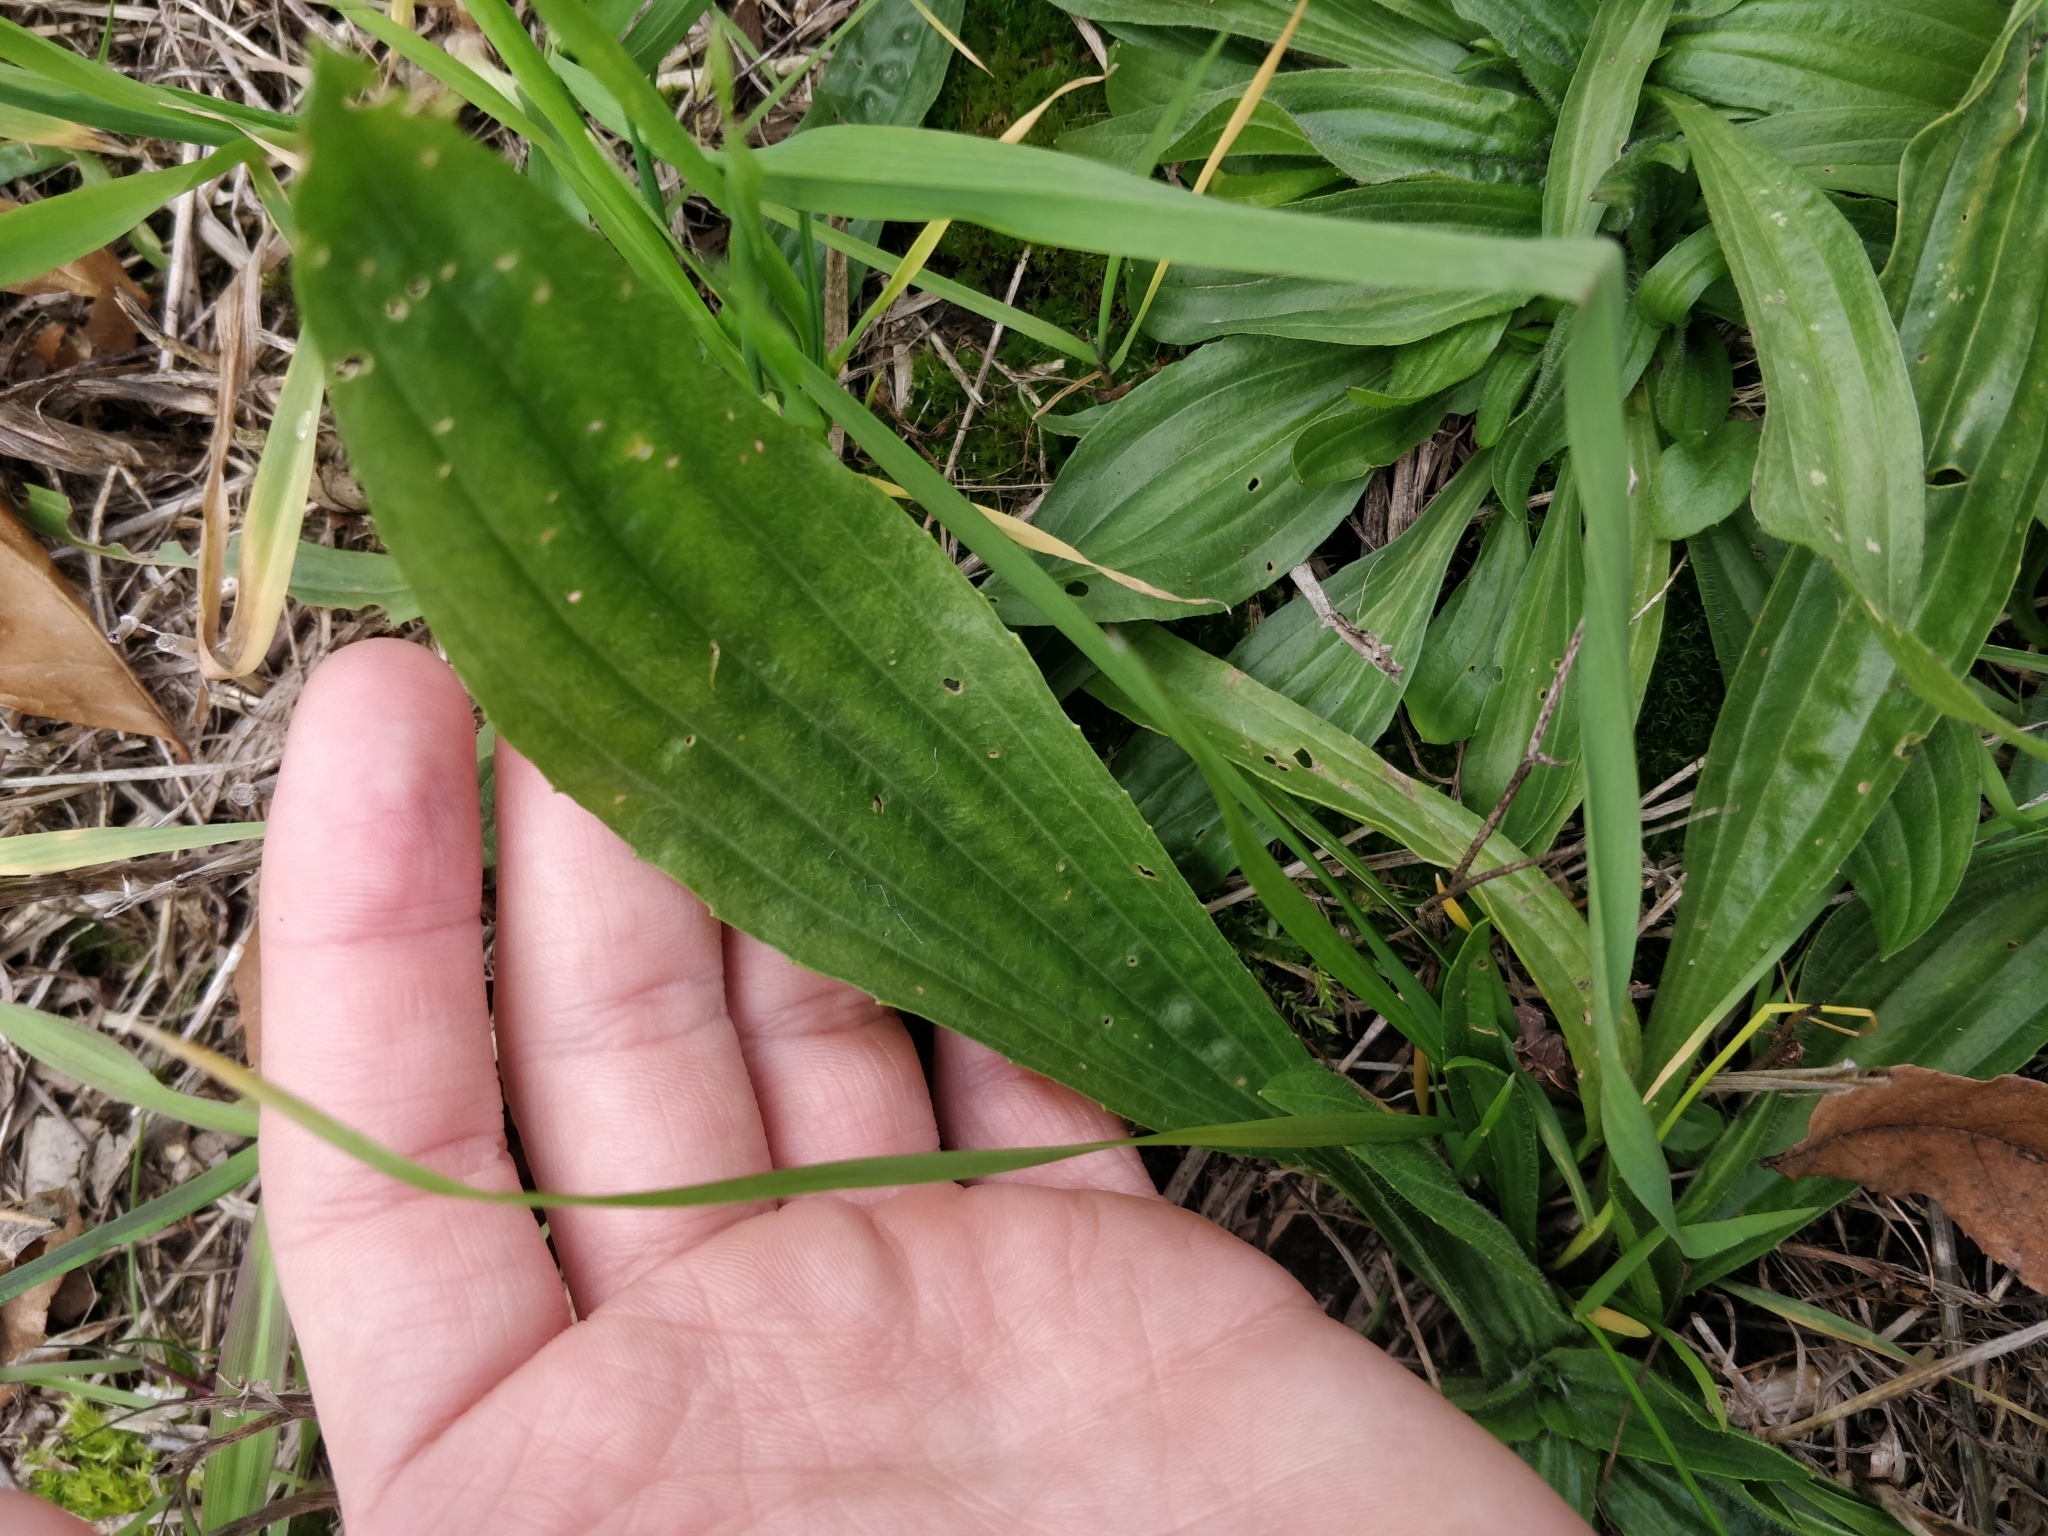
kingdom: Plantae
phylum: Tracheophyta
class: Magnoliopsida
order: Lamiales
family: Plantaginaceae
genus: Plantago
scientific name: Plantago lanceolata
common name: Ribwort plantain
